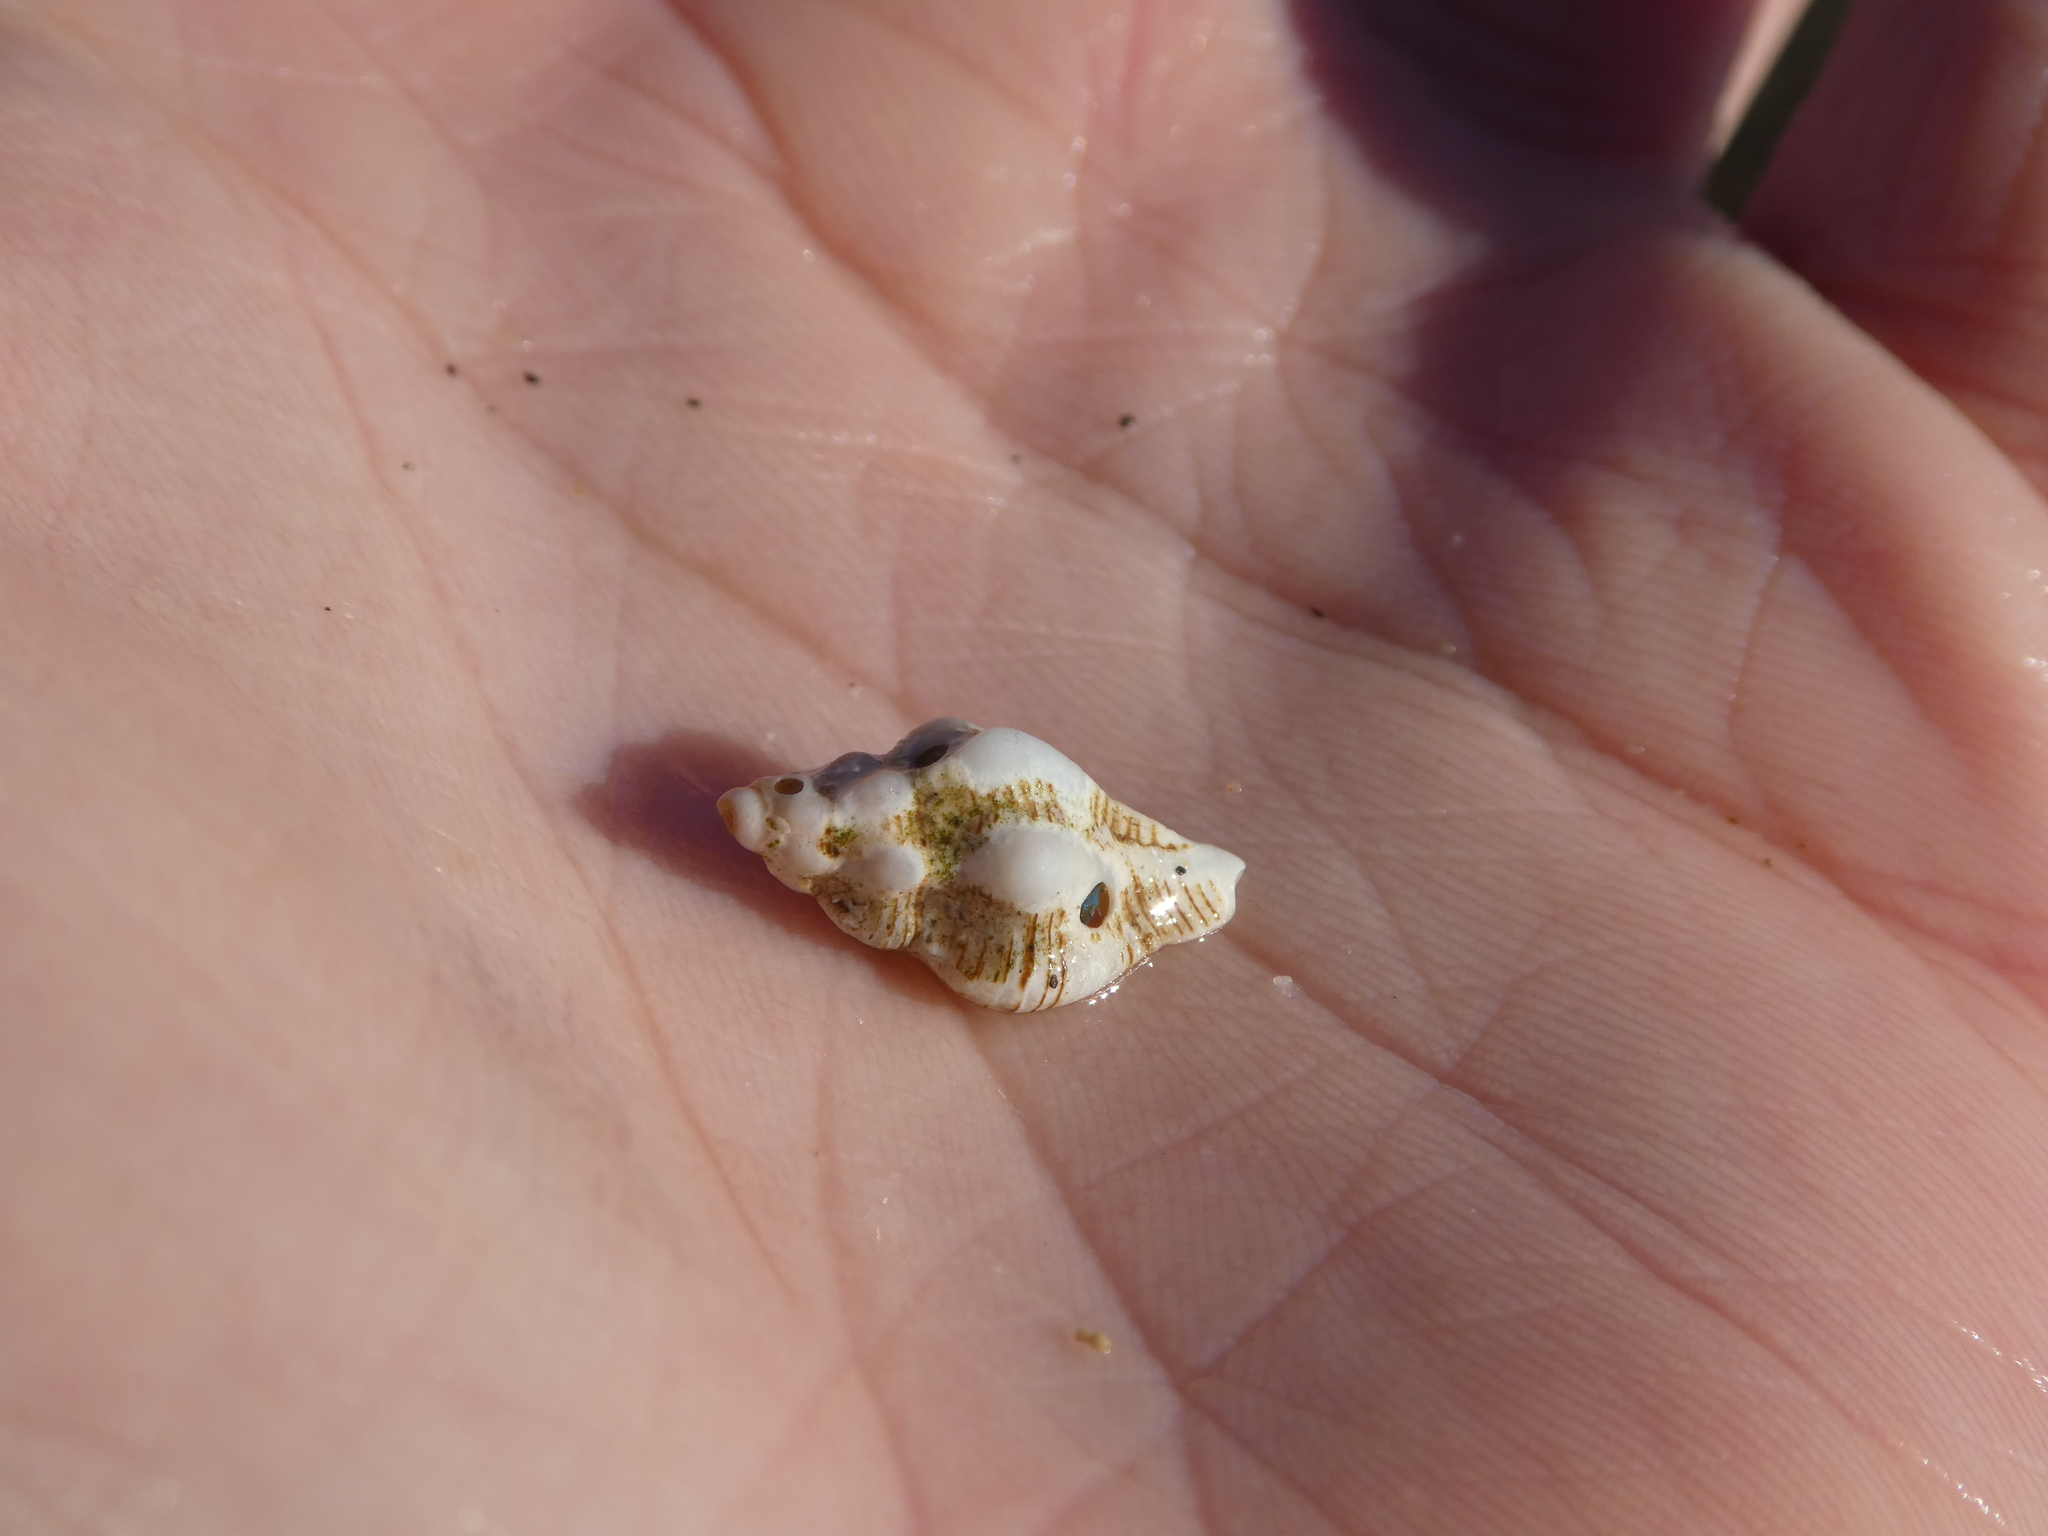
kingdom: Animalia
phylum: Mollusca
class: Gastropoda
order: Neogastropoda
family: Muricidae
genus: Pteropurpura
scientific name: Pteropurpura festiva
